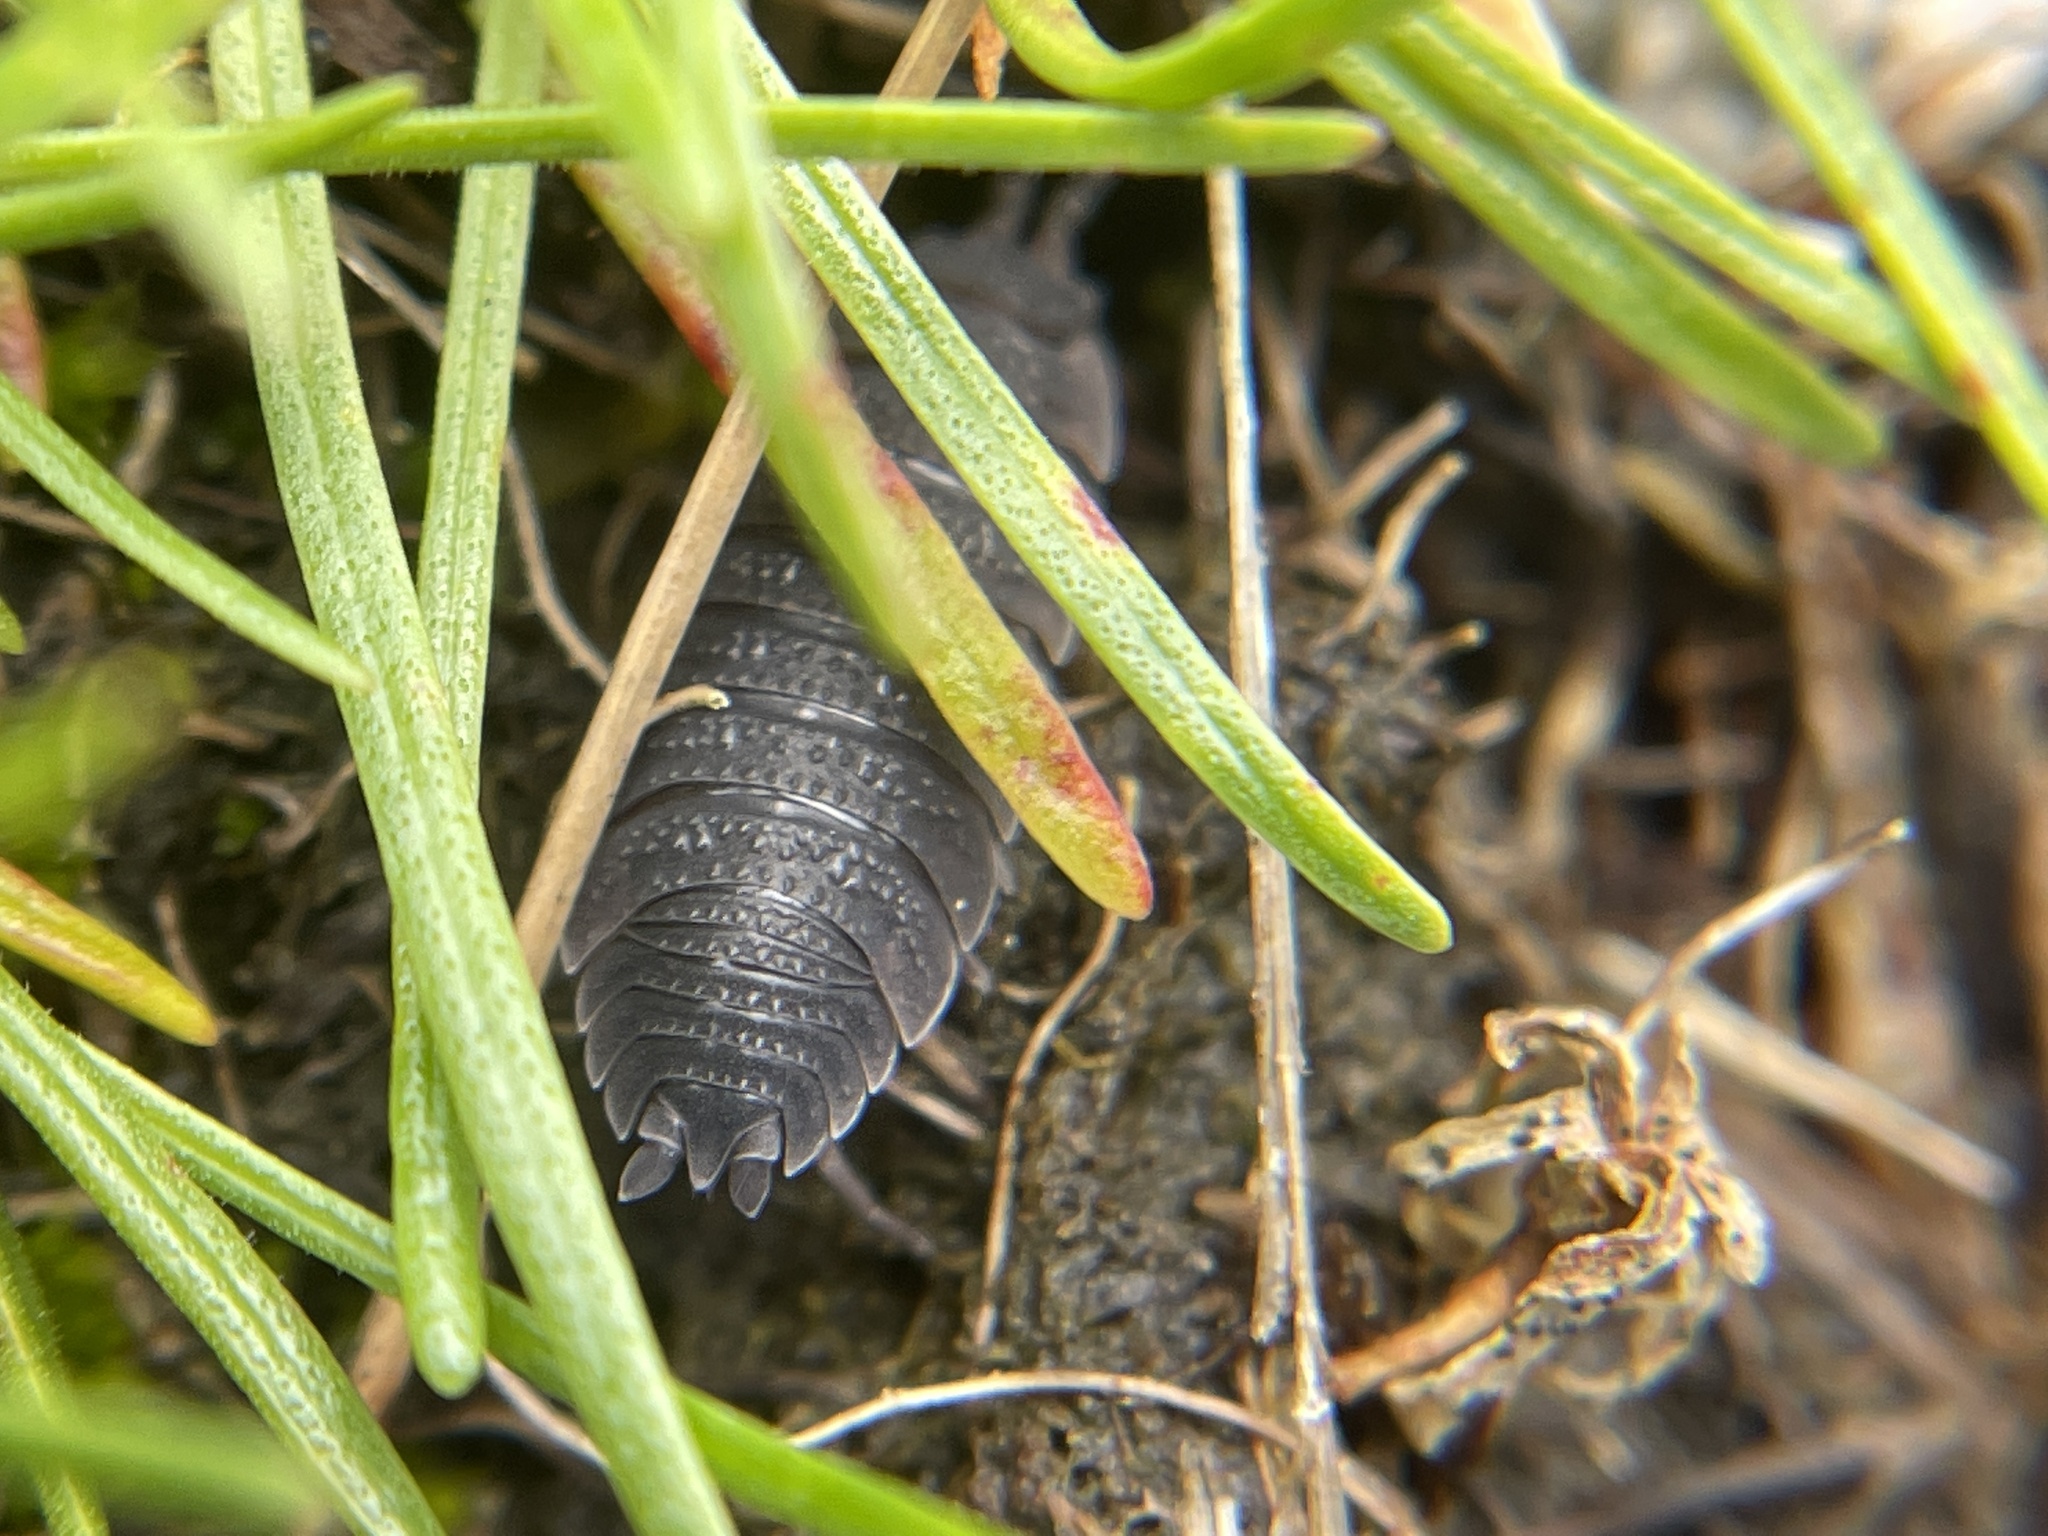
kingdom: Animalia
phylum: Arthropoda
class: Malacostraca
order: Isopoda
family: Porcellionidae
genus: Porcellio
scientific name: Porcellio scaber
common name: Common rough woodlouse
